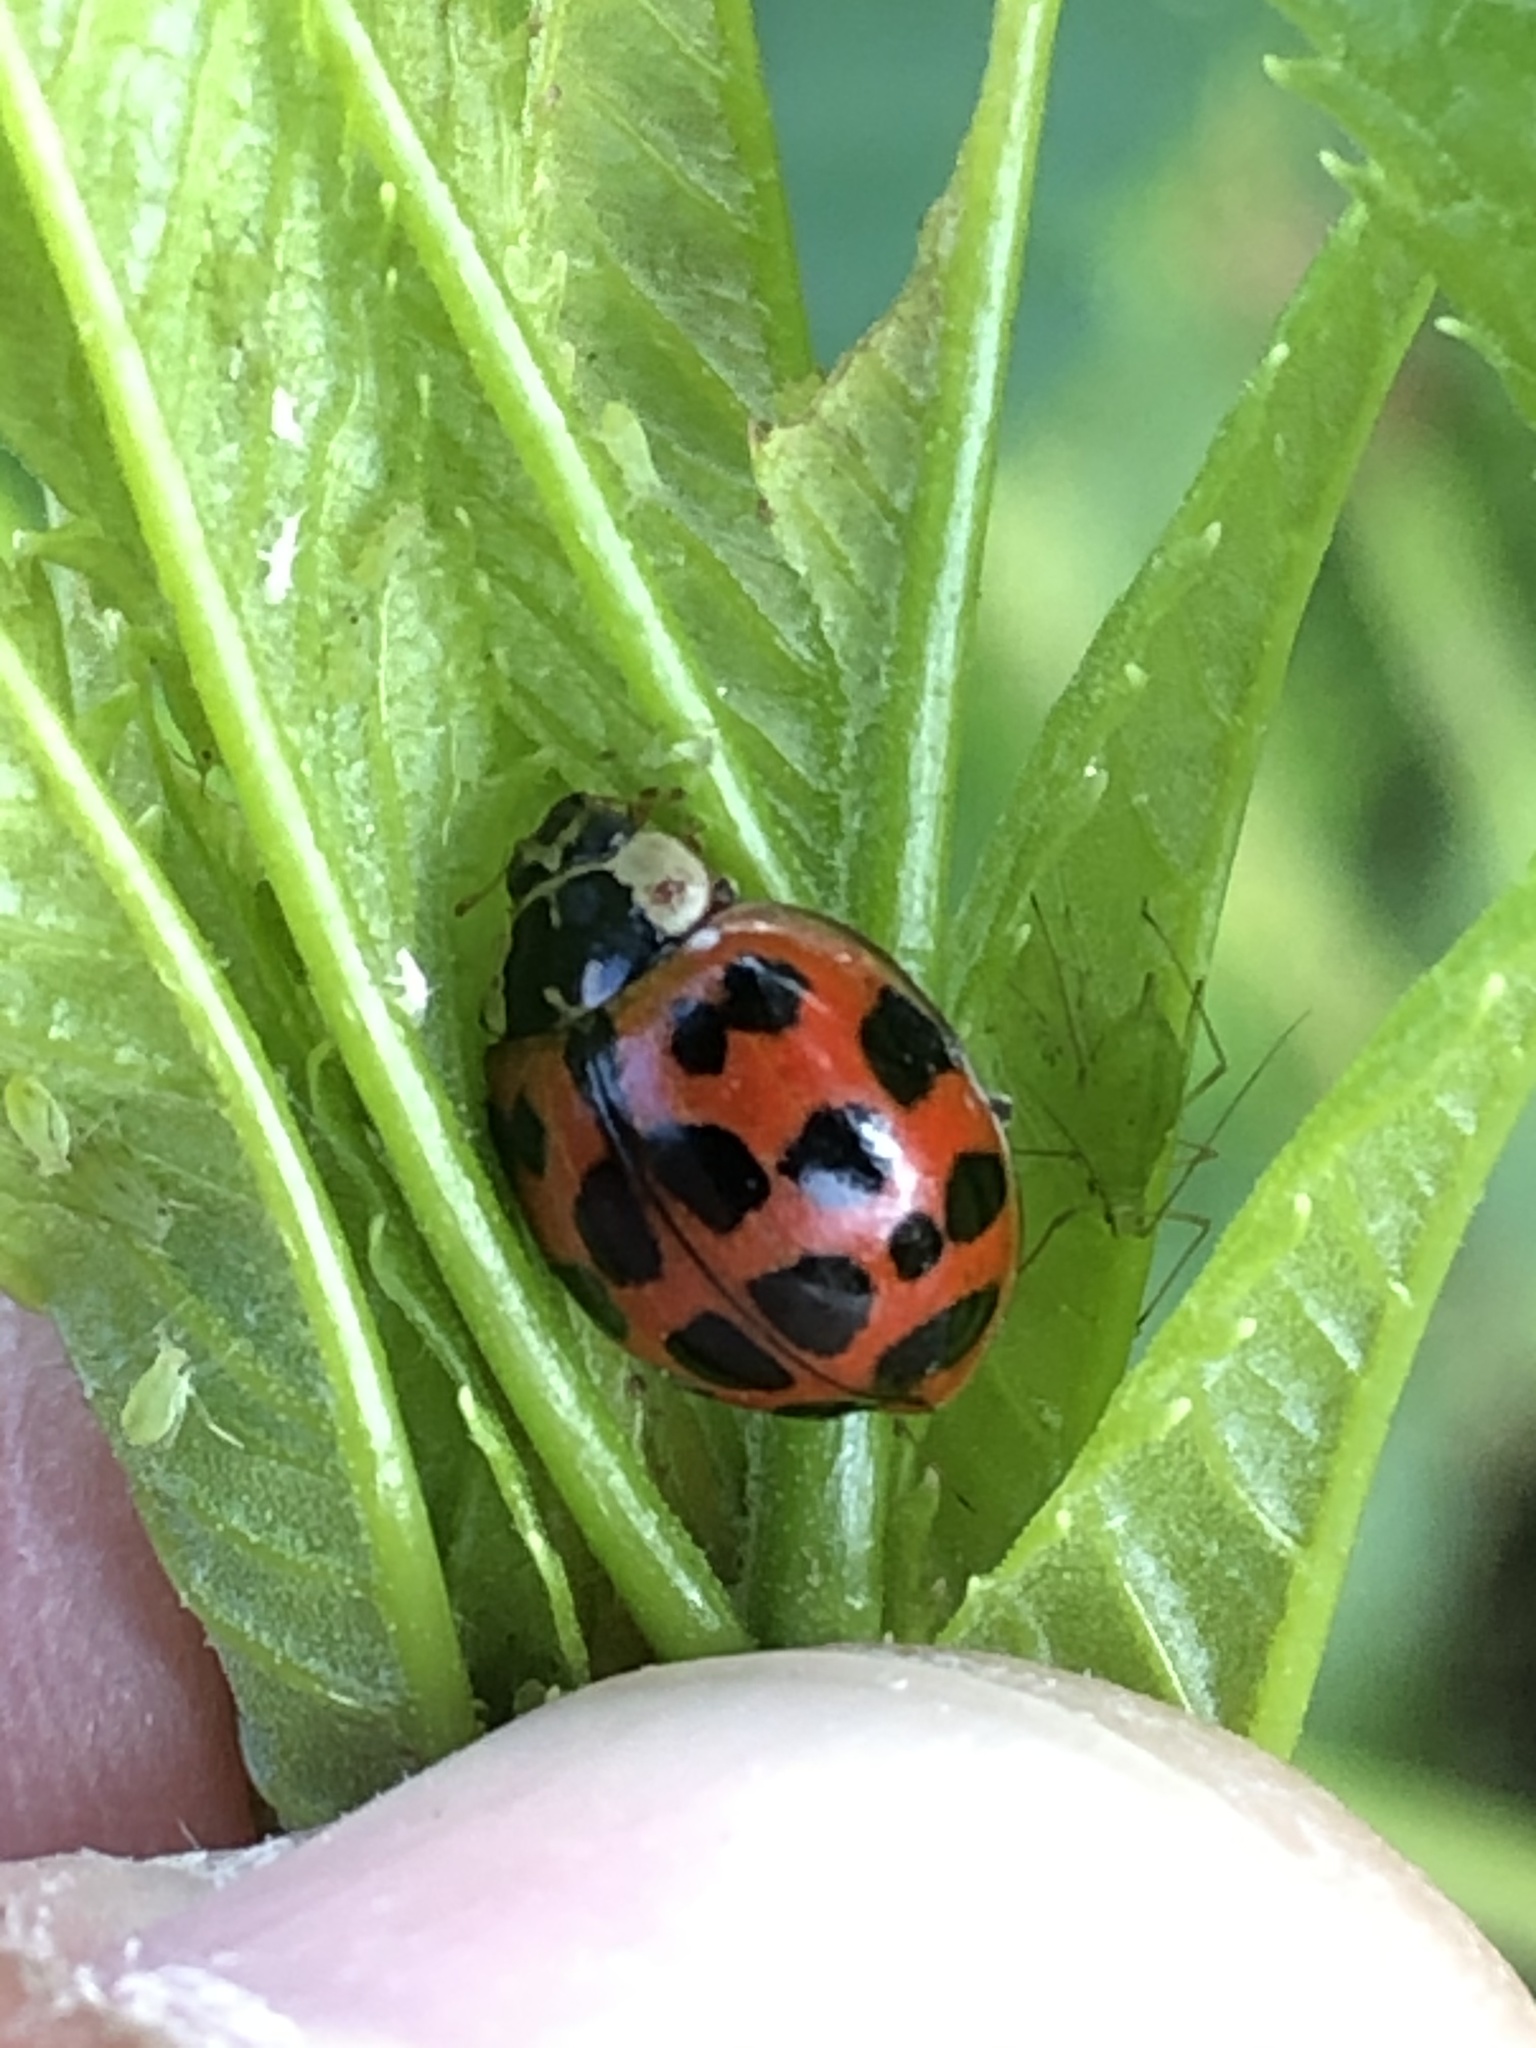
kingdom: Animalia
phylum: Arthropoda
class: Insecta
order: Coleoptera
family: Coccinellidae
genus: Harmonia
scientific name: Harmonia axyridis
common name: Harlequin ladybird
